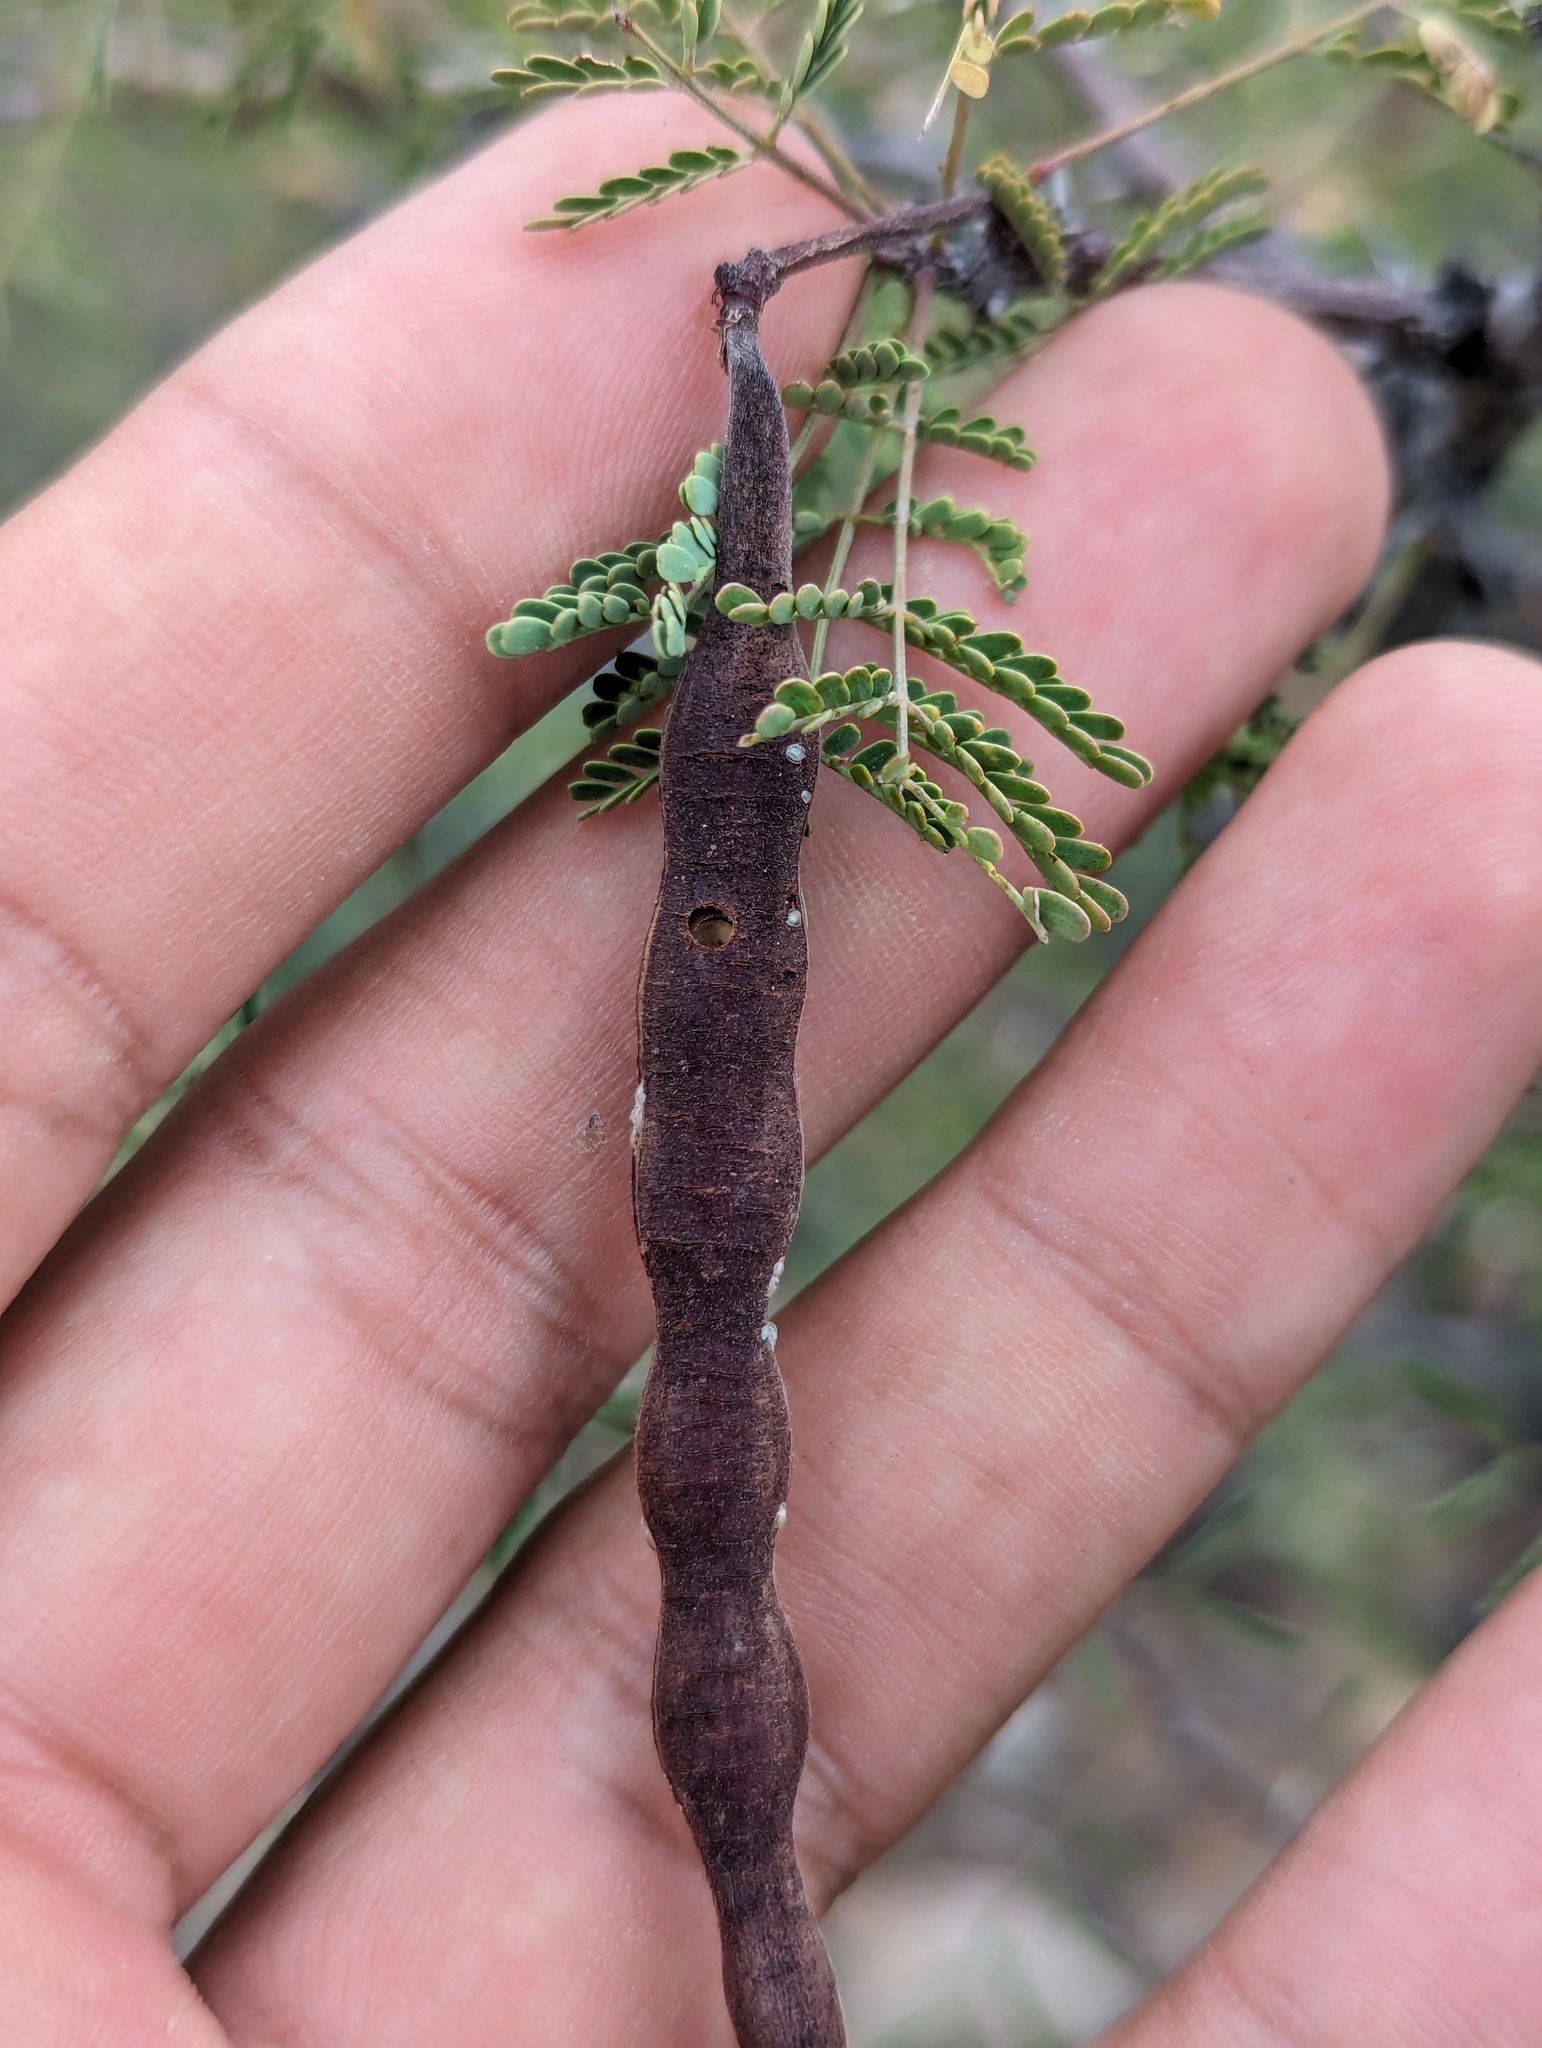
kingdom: Plantae
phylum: Tracheophyta
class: Magnoliopsida
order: Fabales
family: Fabaceae
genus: Vachellia
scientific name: Vachellia pacensis
